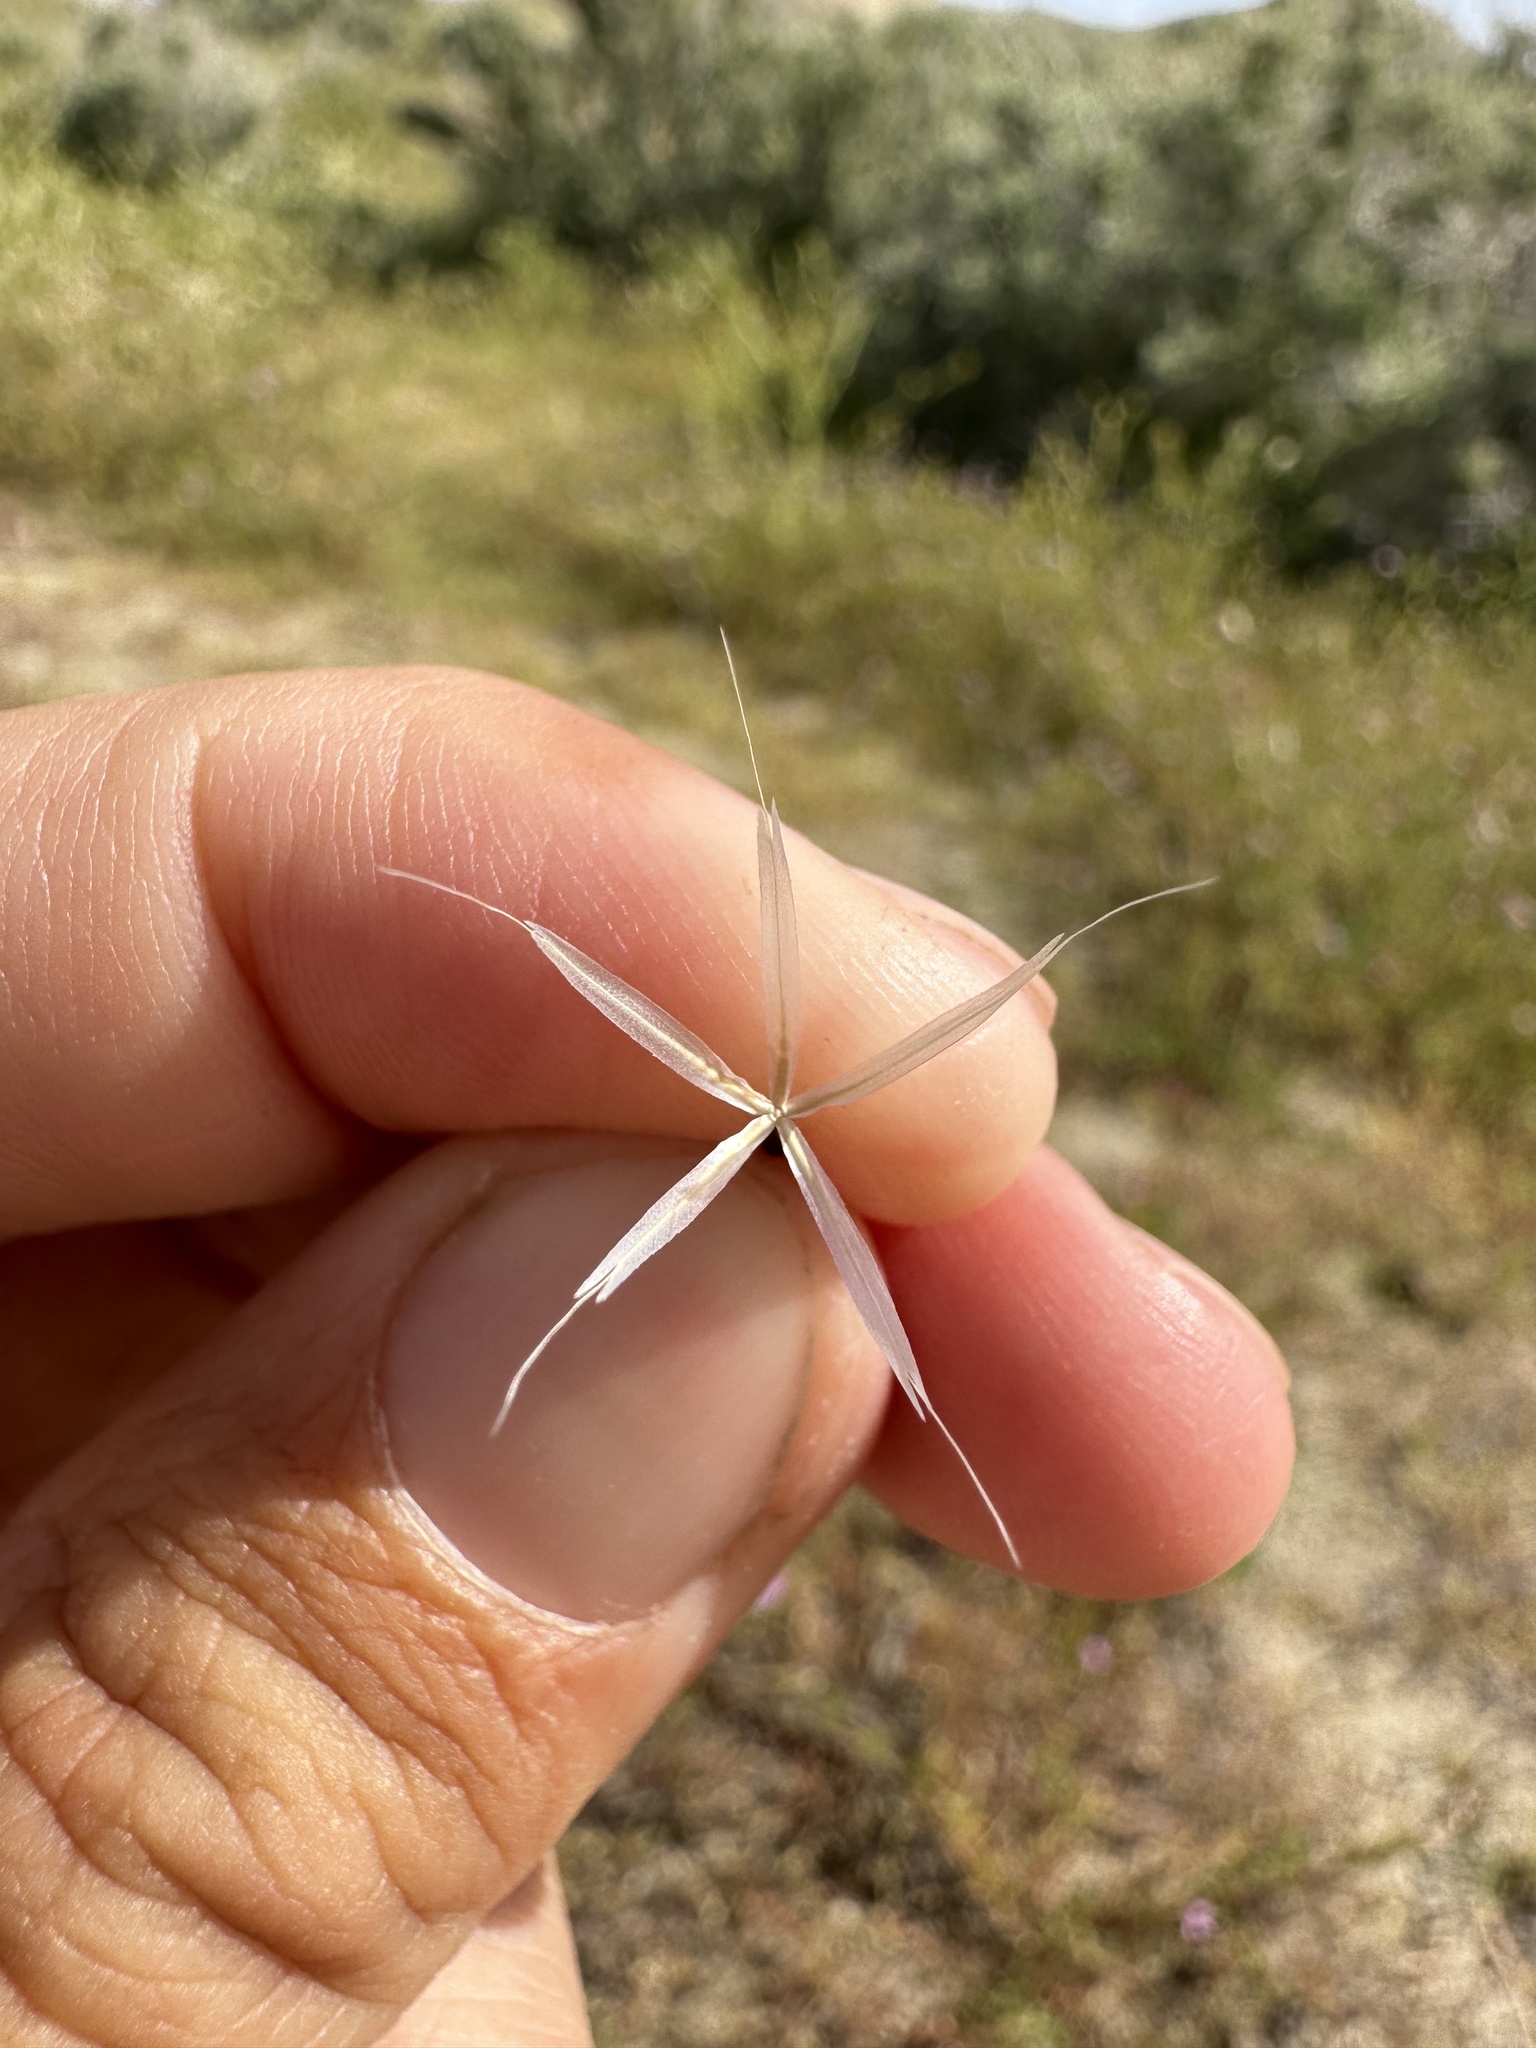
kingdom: Plantae
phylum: Tracheophyta
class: Magnoliopsida
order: Asterales
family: Asteraceae
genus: Microseris
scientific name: Microseris lindleyi
